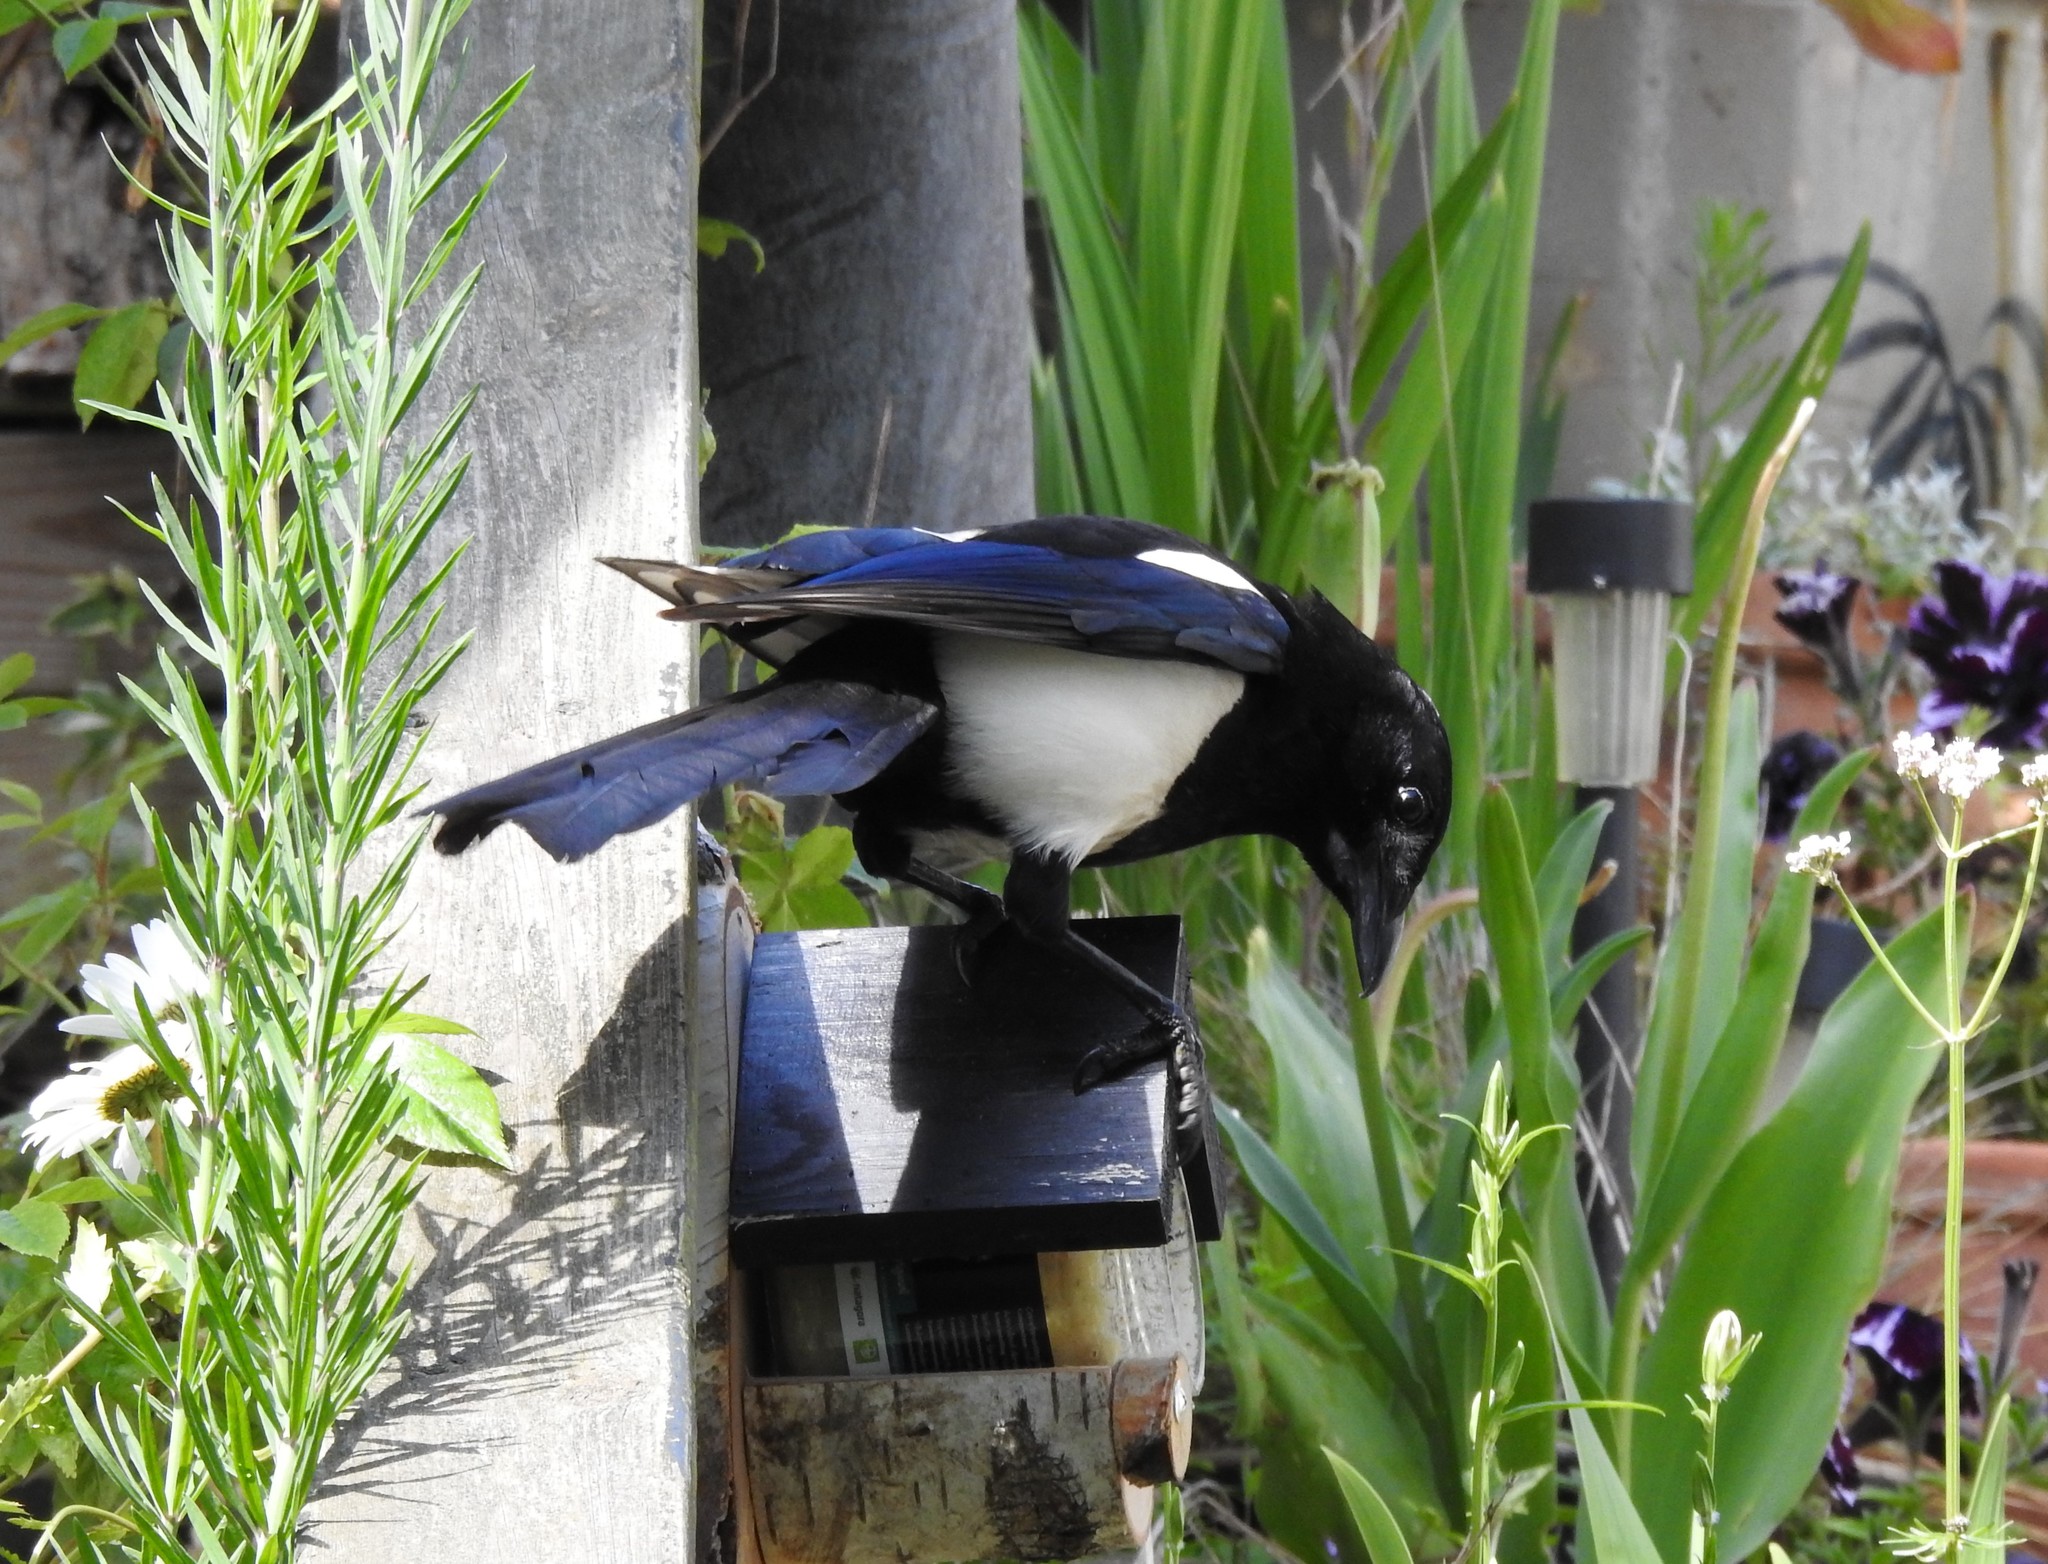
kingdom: Animalia
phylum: Chordata
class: Aves
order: Passeriformes
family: Corvidae
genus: Pica
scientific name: Pica pica
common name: Eurasian magpie
